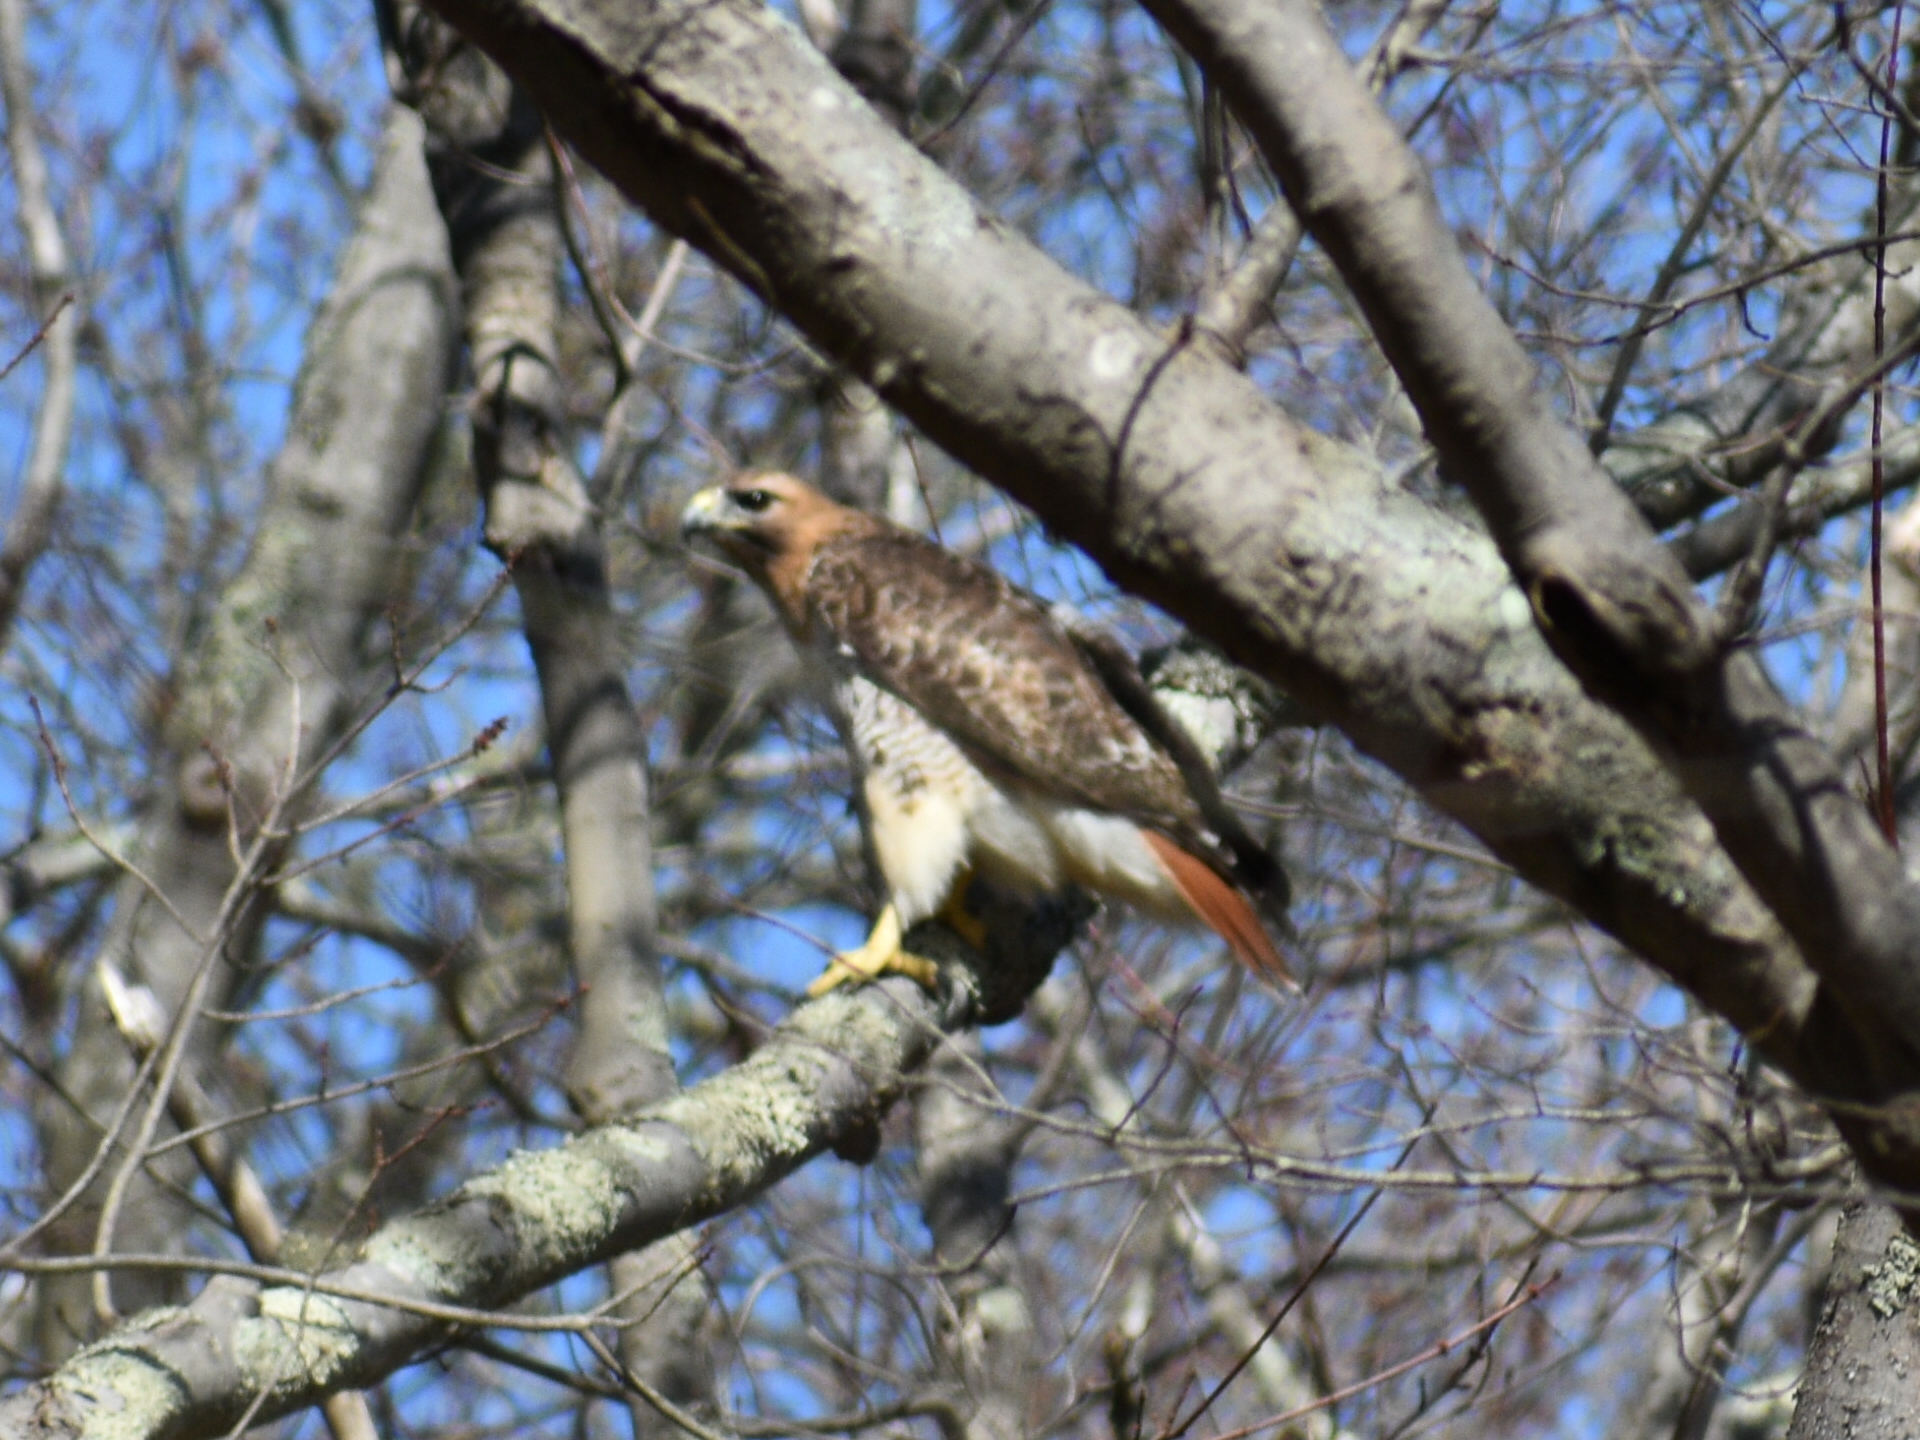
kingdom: Animalia
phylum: Chordata
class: Aves
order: Accipitriformes
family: Accipitridae
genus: Buteo
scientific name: Buteo jamaicensis
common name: Red-tailed hawk
